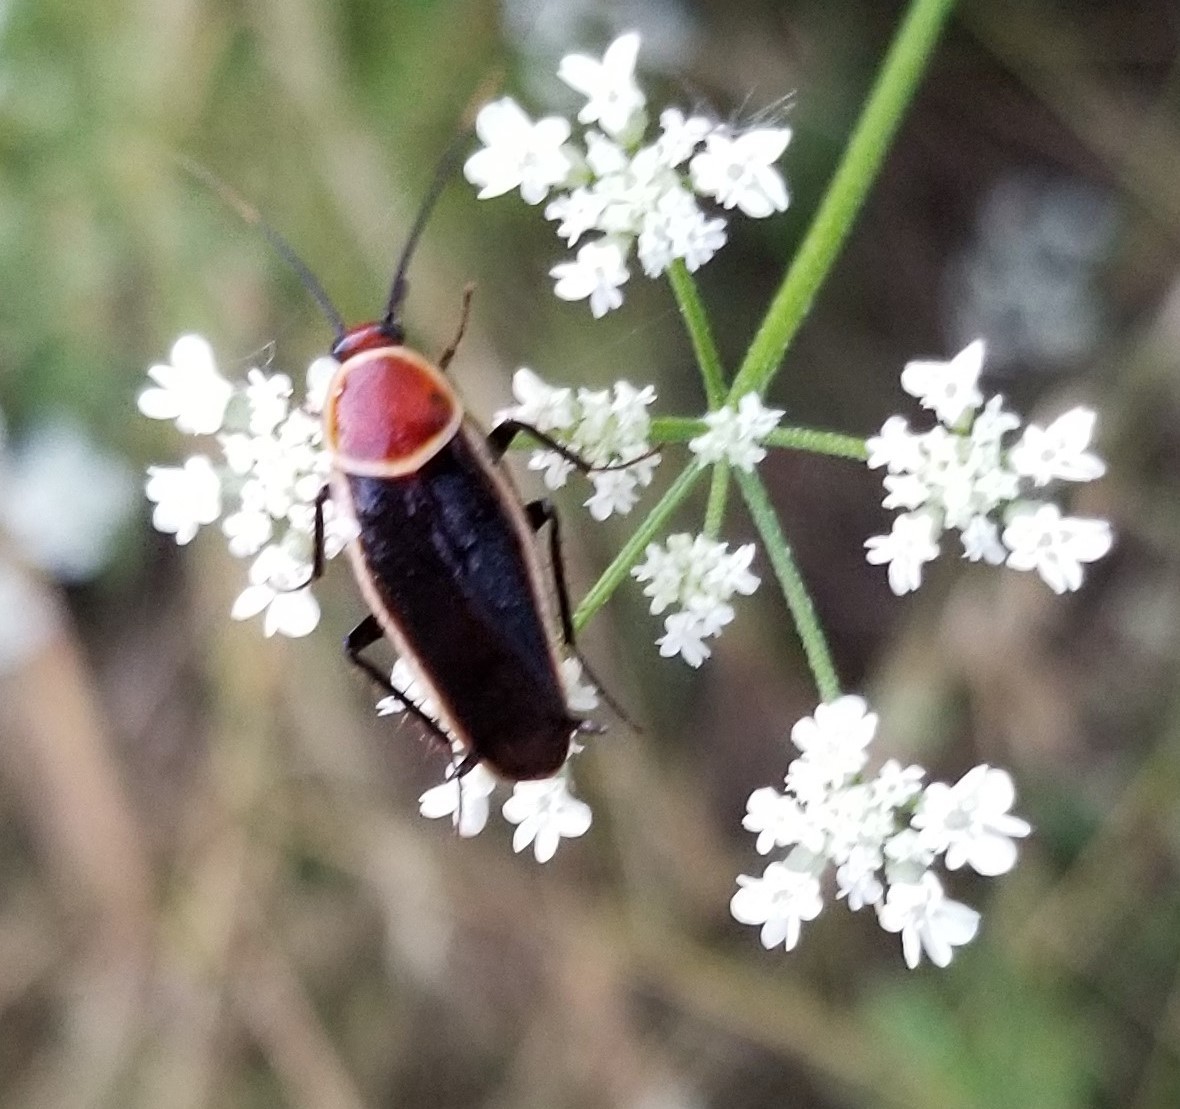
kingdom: Animalia
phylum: Arthropoda
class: Insecta
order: Blattodea
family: Ectobiidae
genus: Pseudomops
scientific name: Pseudomops septentrionalis
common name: Pale-bordered field cockroach
